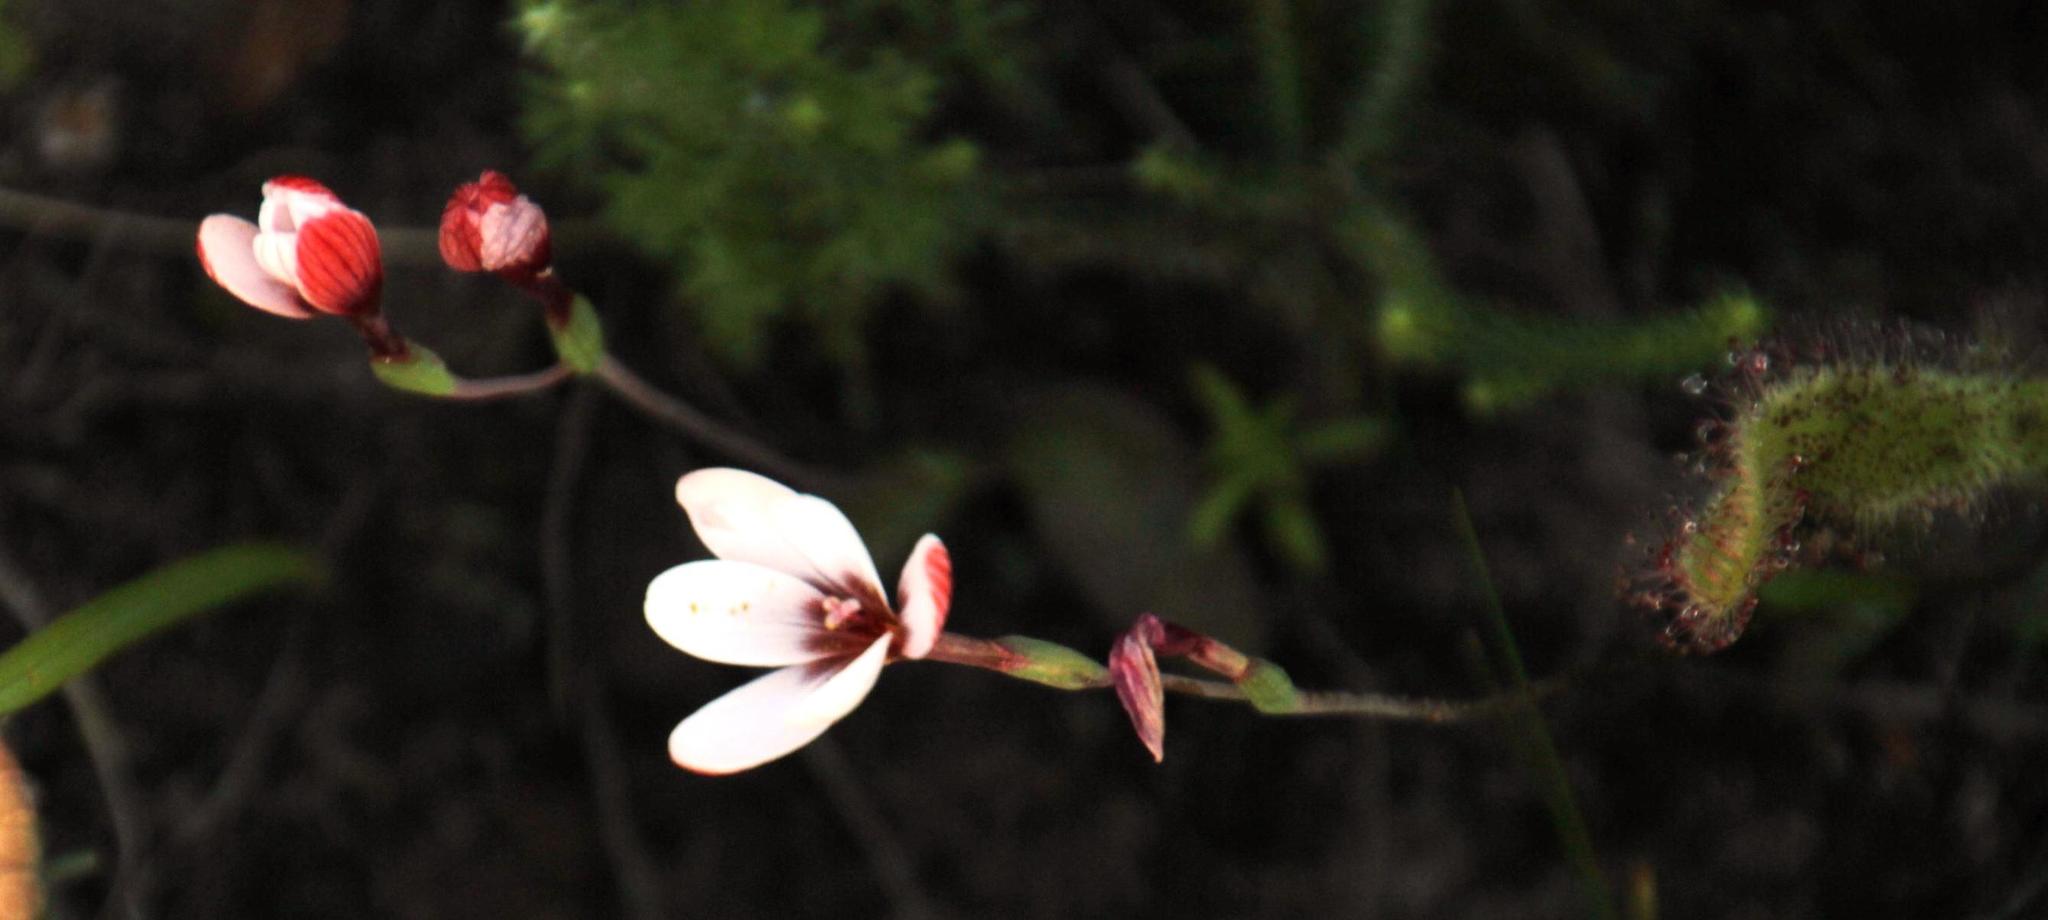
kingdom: Plantae
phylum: Tracheophyta
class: Liliopsida
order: Asparagales
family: Iridaceae
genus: Geissorhiza
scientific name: Geissorhiza ovata
